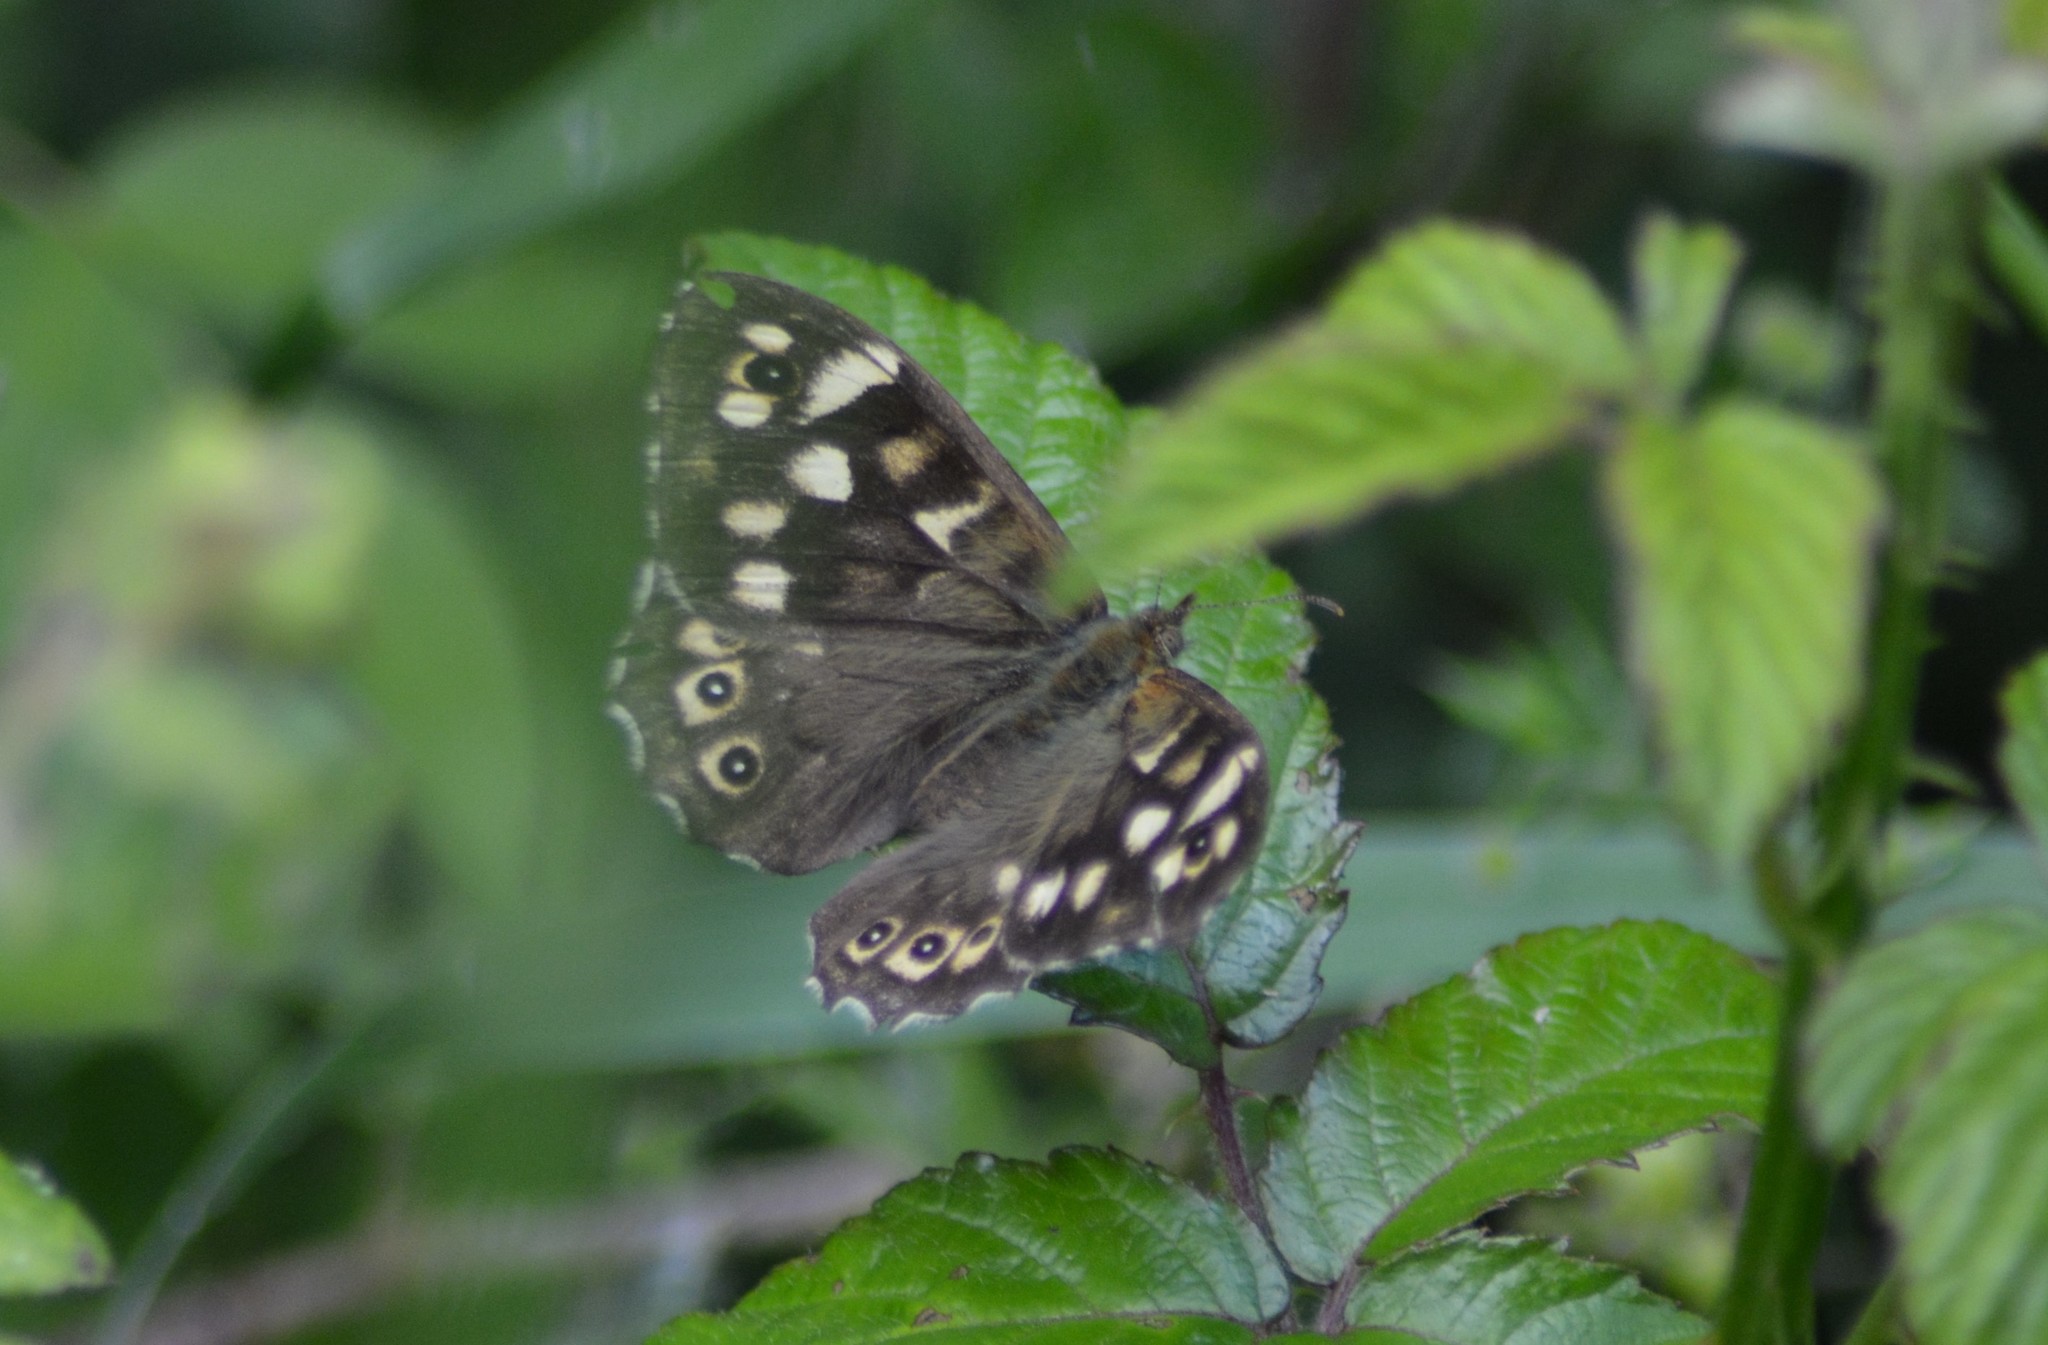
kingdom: Animalia
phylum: Arthropoda
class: Insecta
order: Lepidoptera
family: Nymphalidae
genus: Pararge
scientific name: Pararge aegeria
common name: Speckled wood
